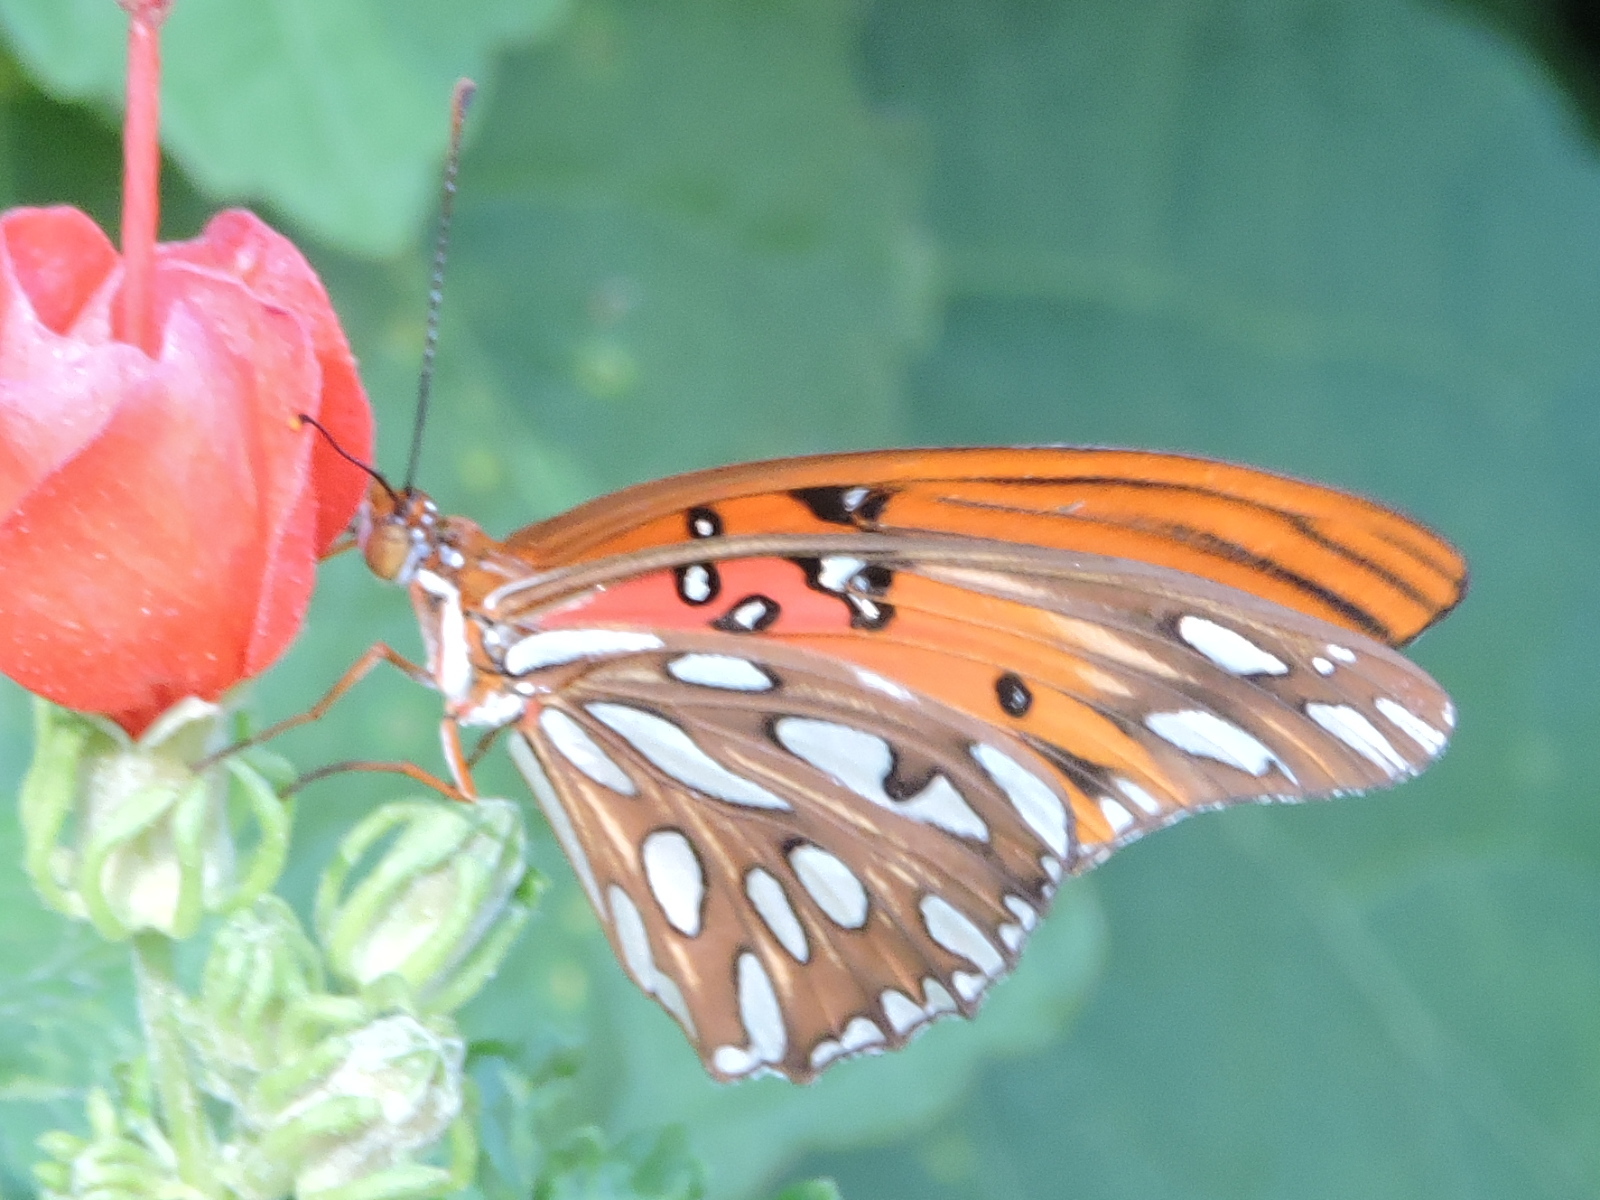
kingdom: Animalia
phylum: Arthropoda
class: Insecta
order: Lepidoptera
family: Nymphalidae
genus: Dione
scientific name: Dione vanillae
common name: Gulf fritillary
